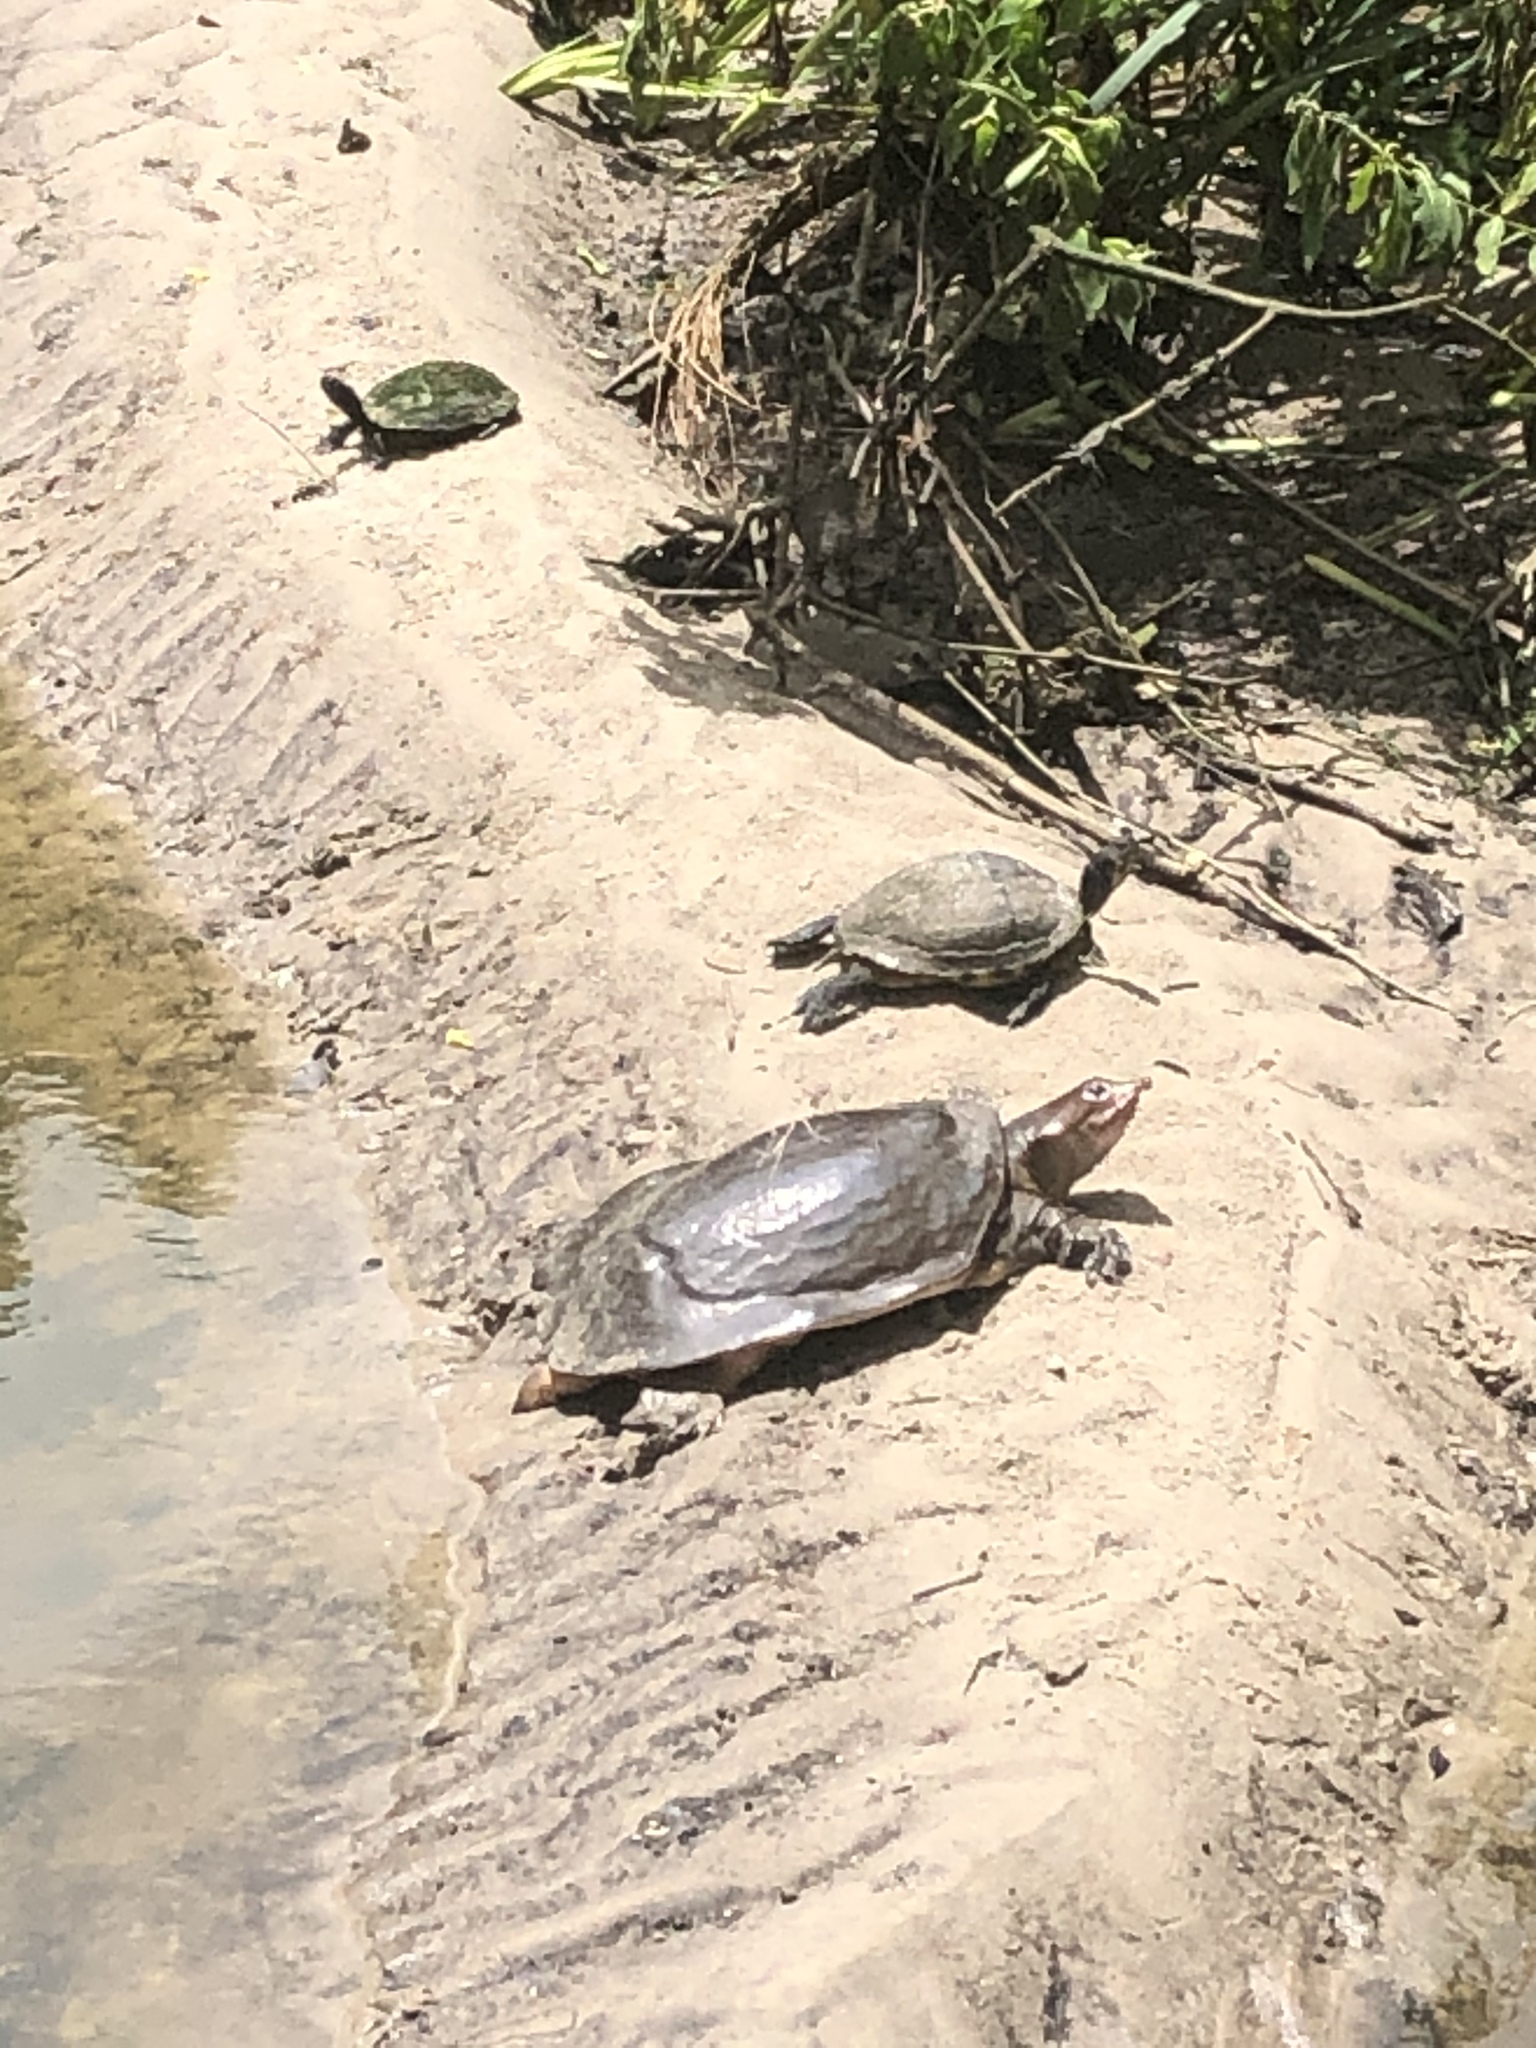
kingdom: Animalia
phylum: Chordata
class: Testudines
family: Trionychidae
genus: Apalone
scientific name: Apalone ferox
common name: Florida softshell turtle
